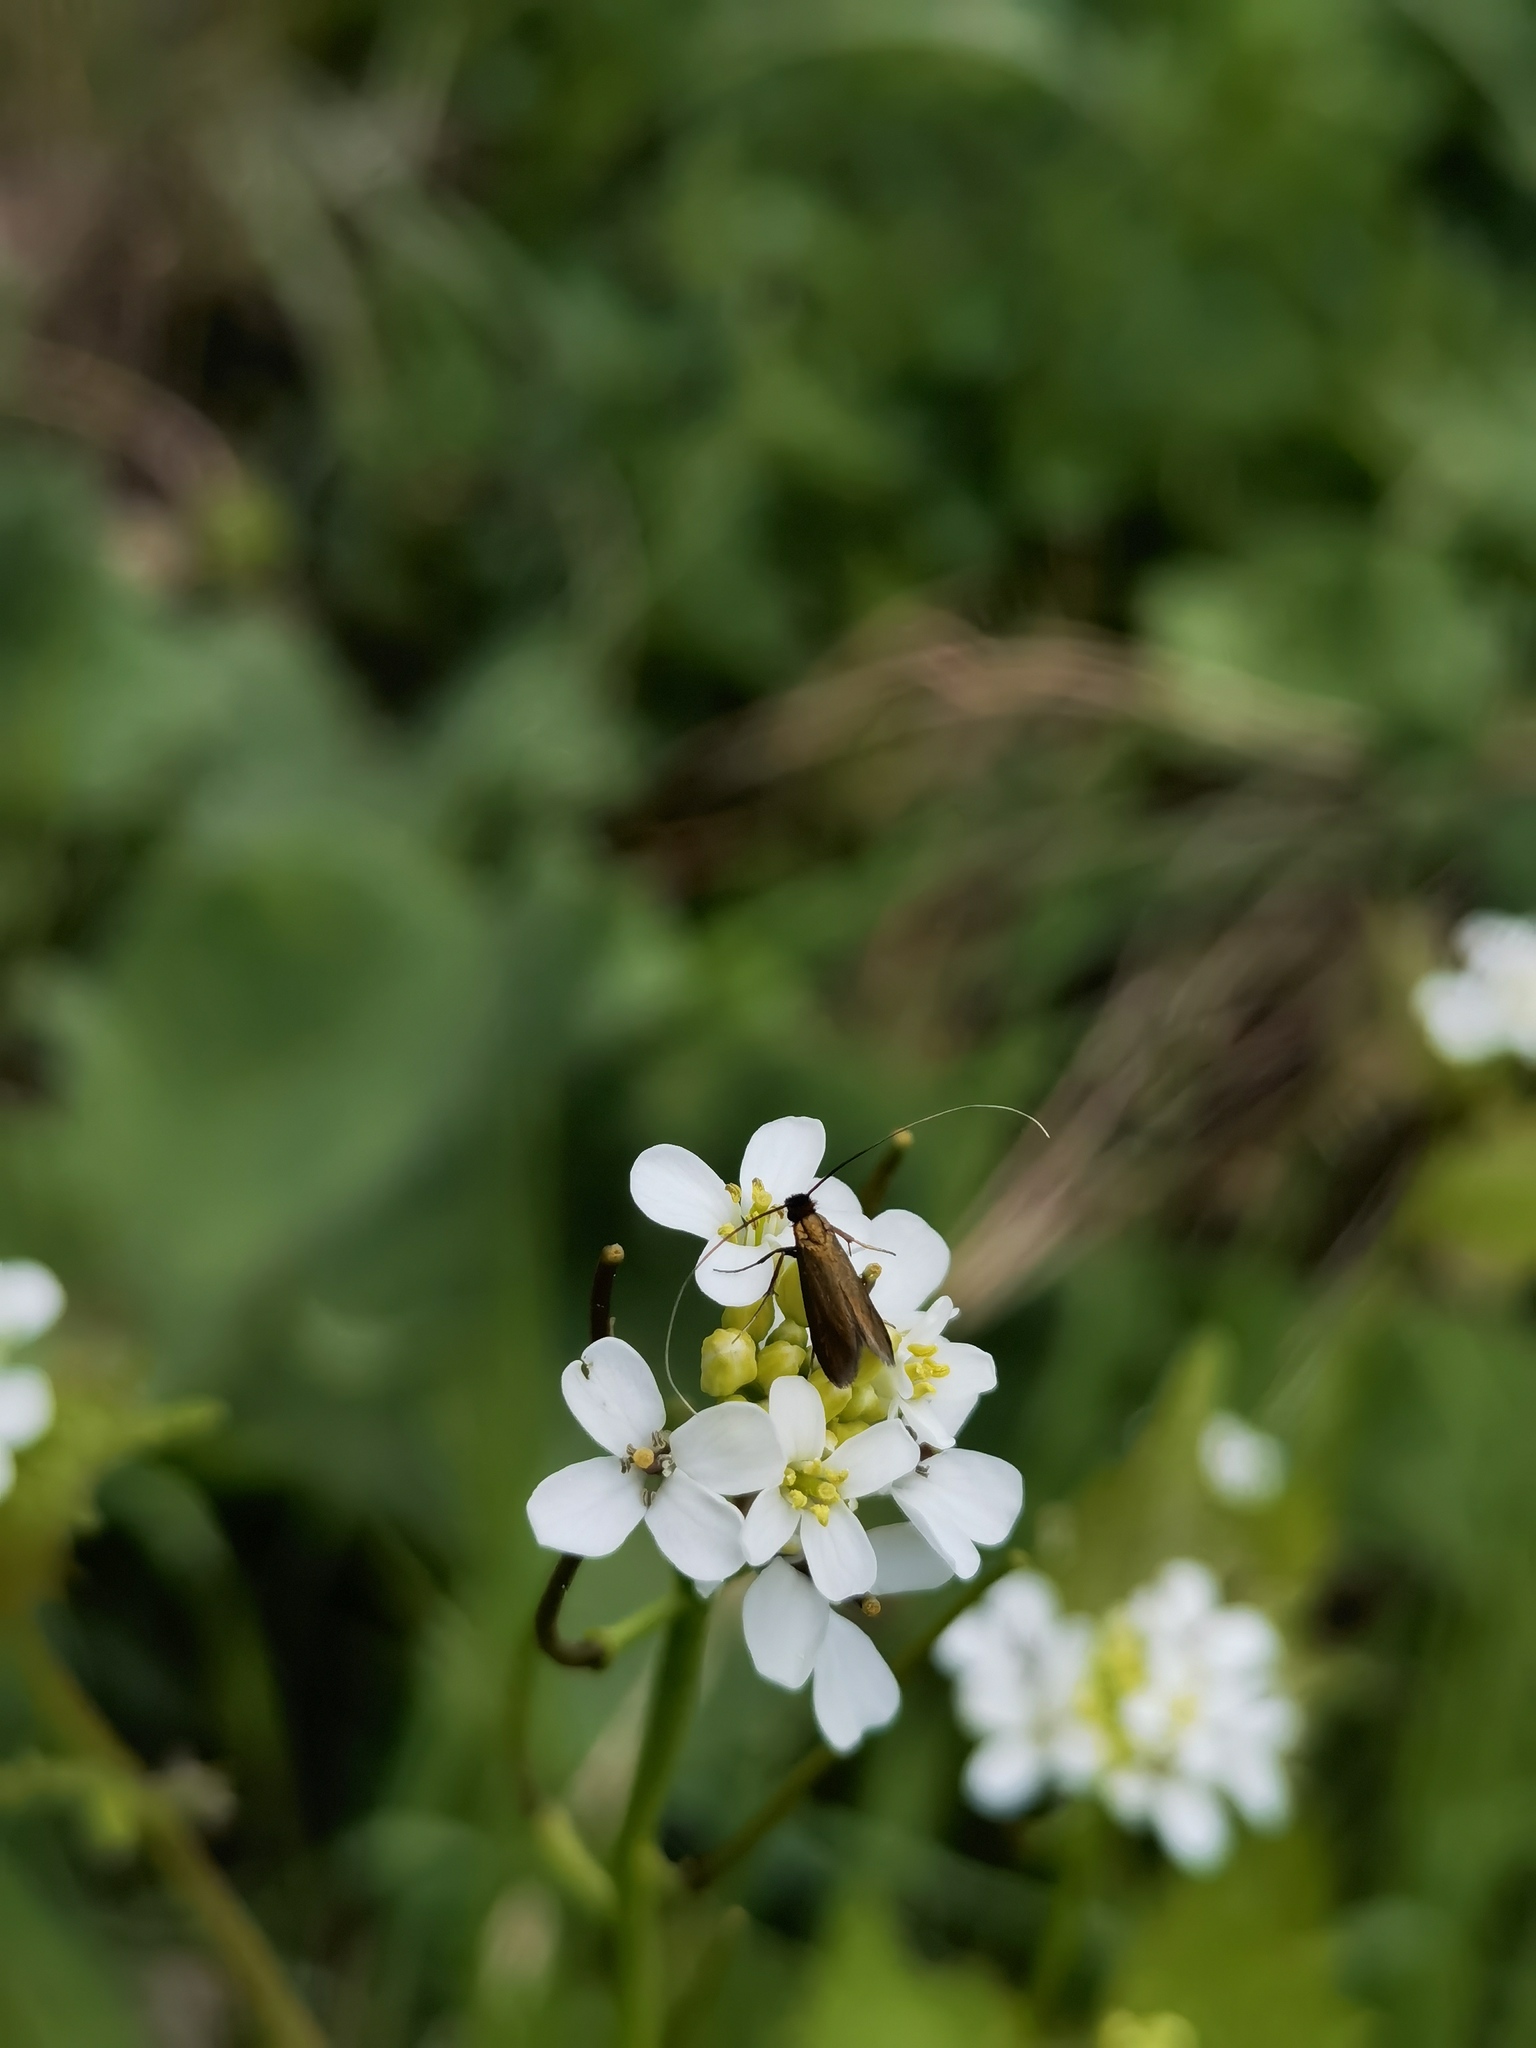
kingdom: Animalia
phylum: Arthropoda
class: Insecta
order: Lepidoptera
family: Adelidae
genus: Cauchas
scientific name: Cauchas rufimitrella
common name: Meadow long-horn
